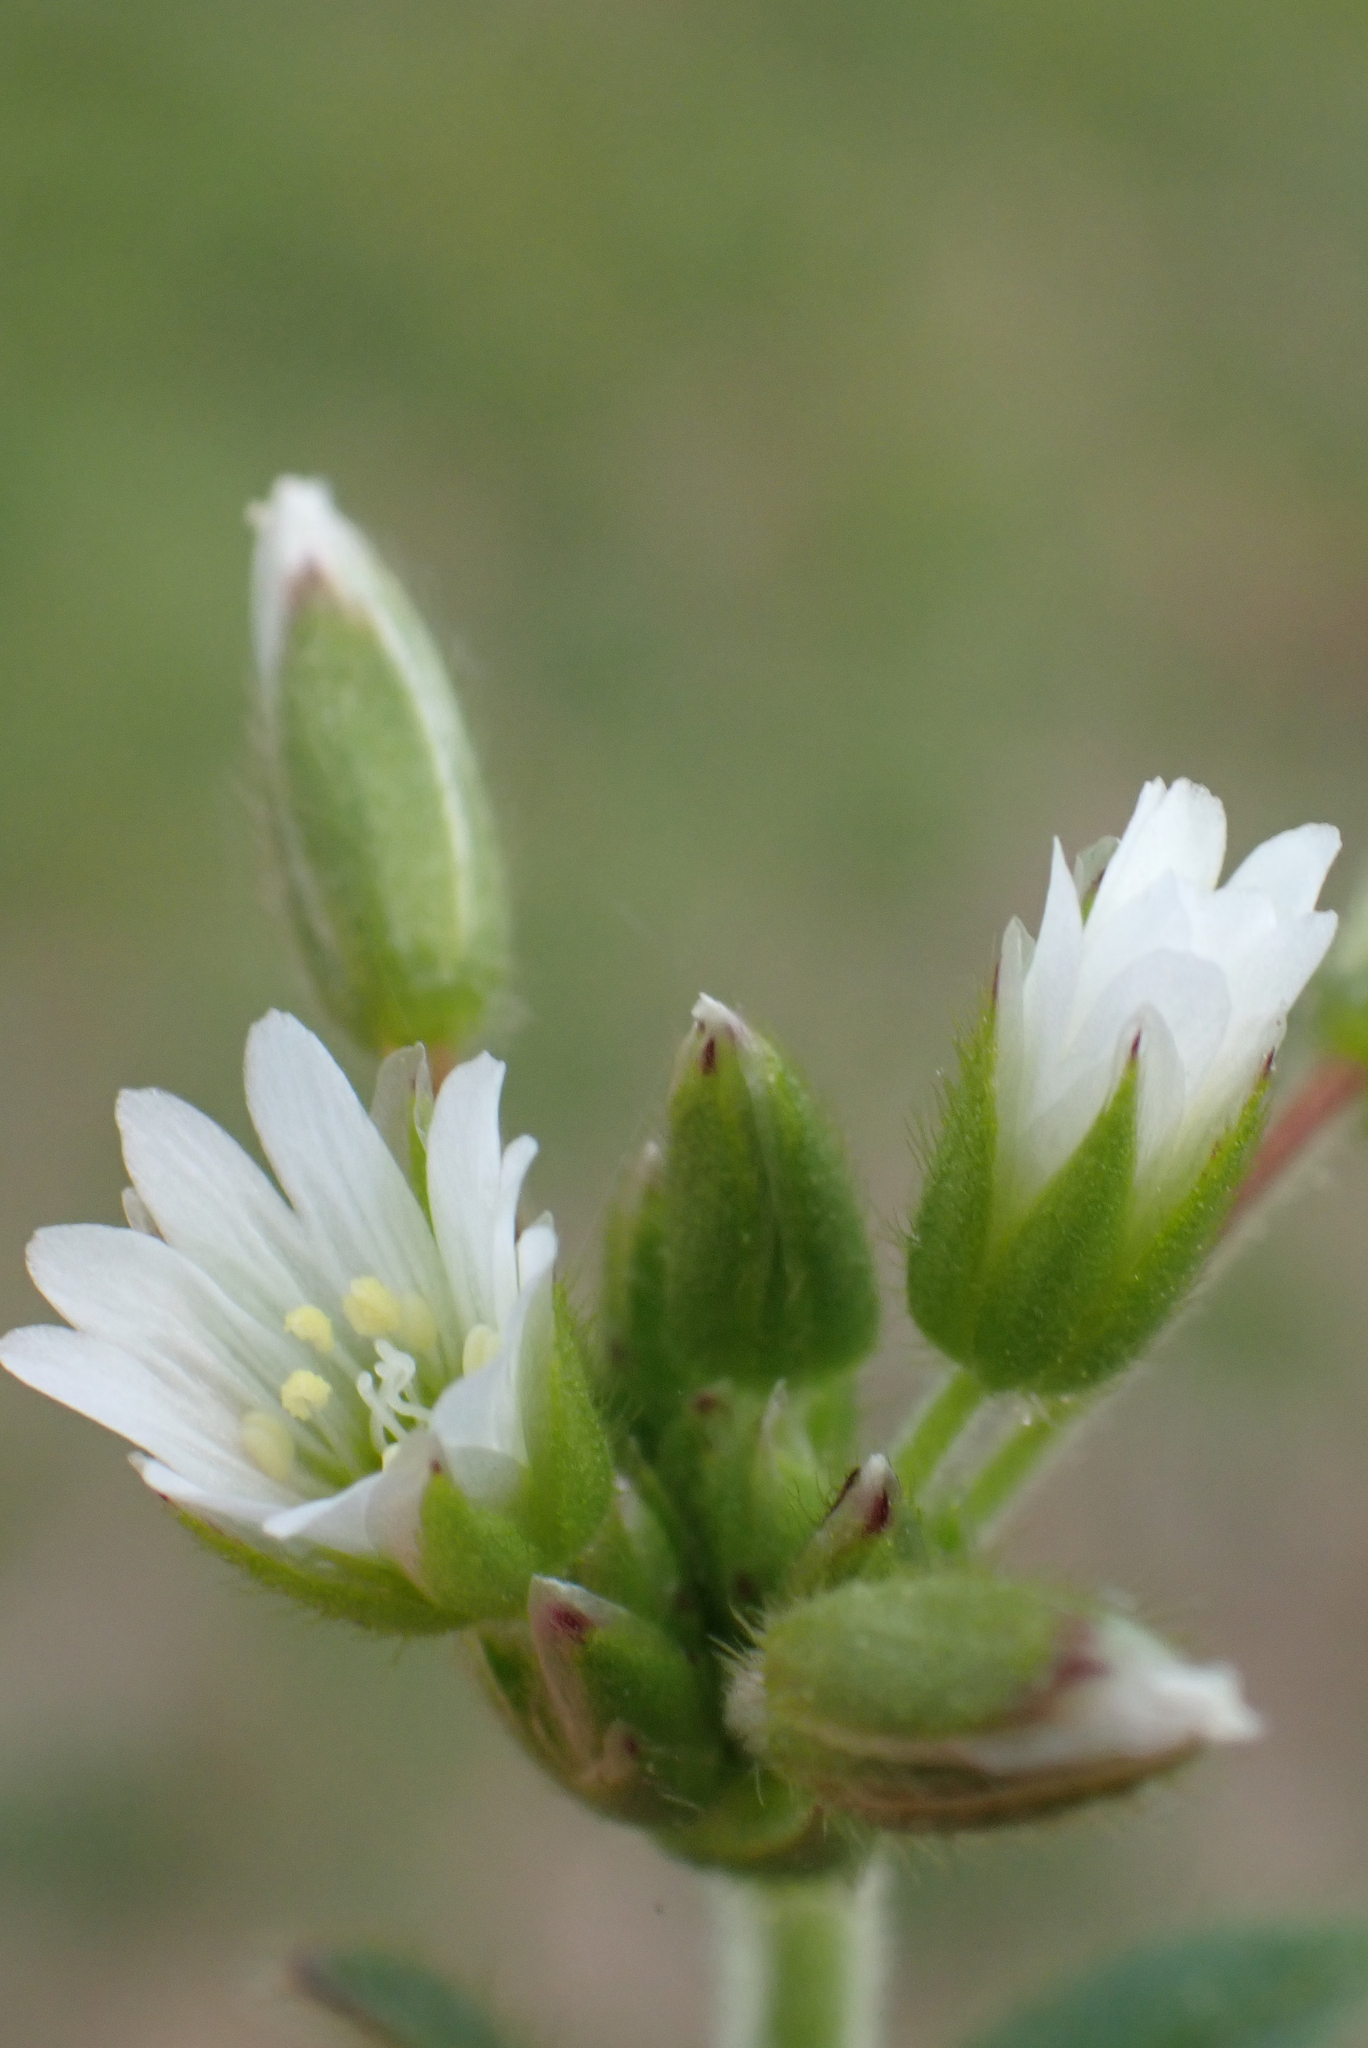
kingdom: Plantae
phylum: Tracheophyta
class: Magnoliopsida
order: Caryophyllales
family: Caryophyllaceae
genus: Cerastium
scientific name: Cerastium fontanum
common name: Common mouse-ear
